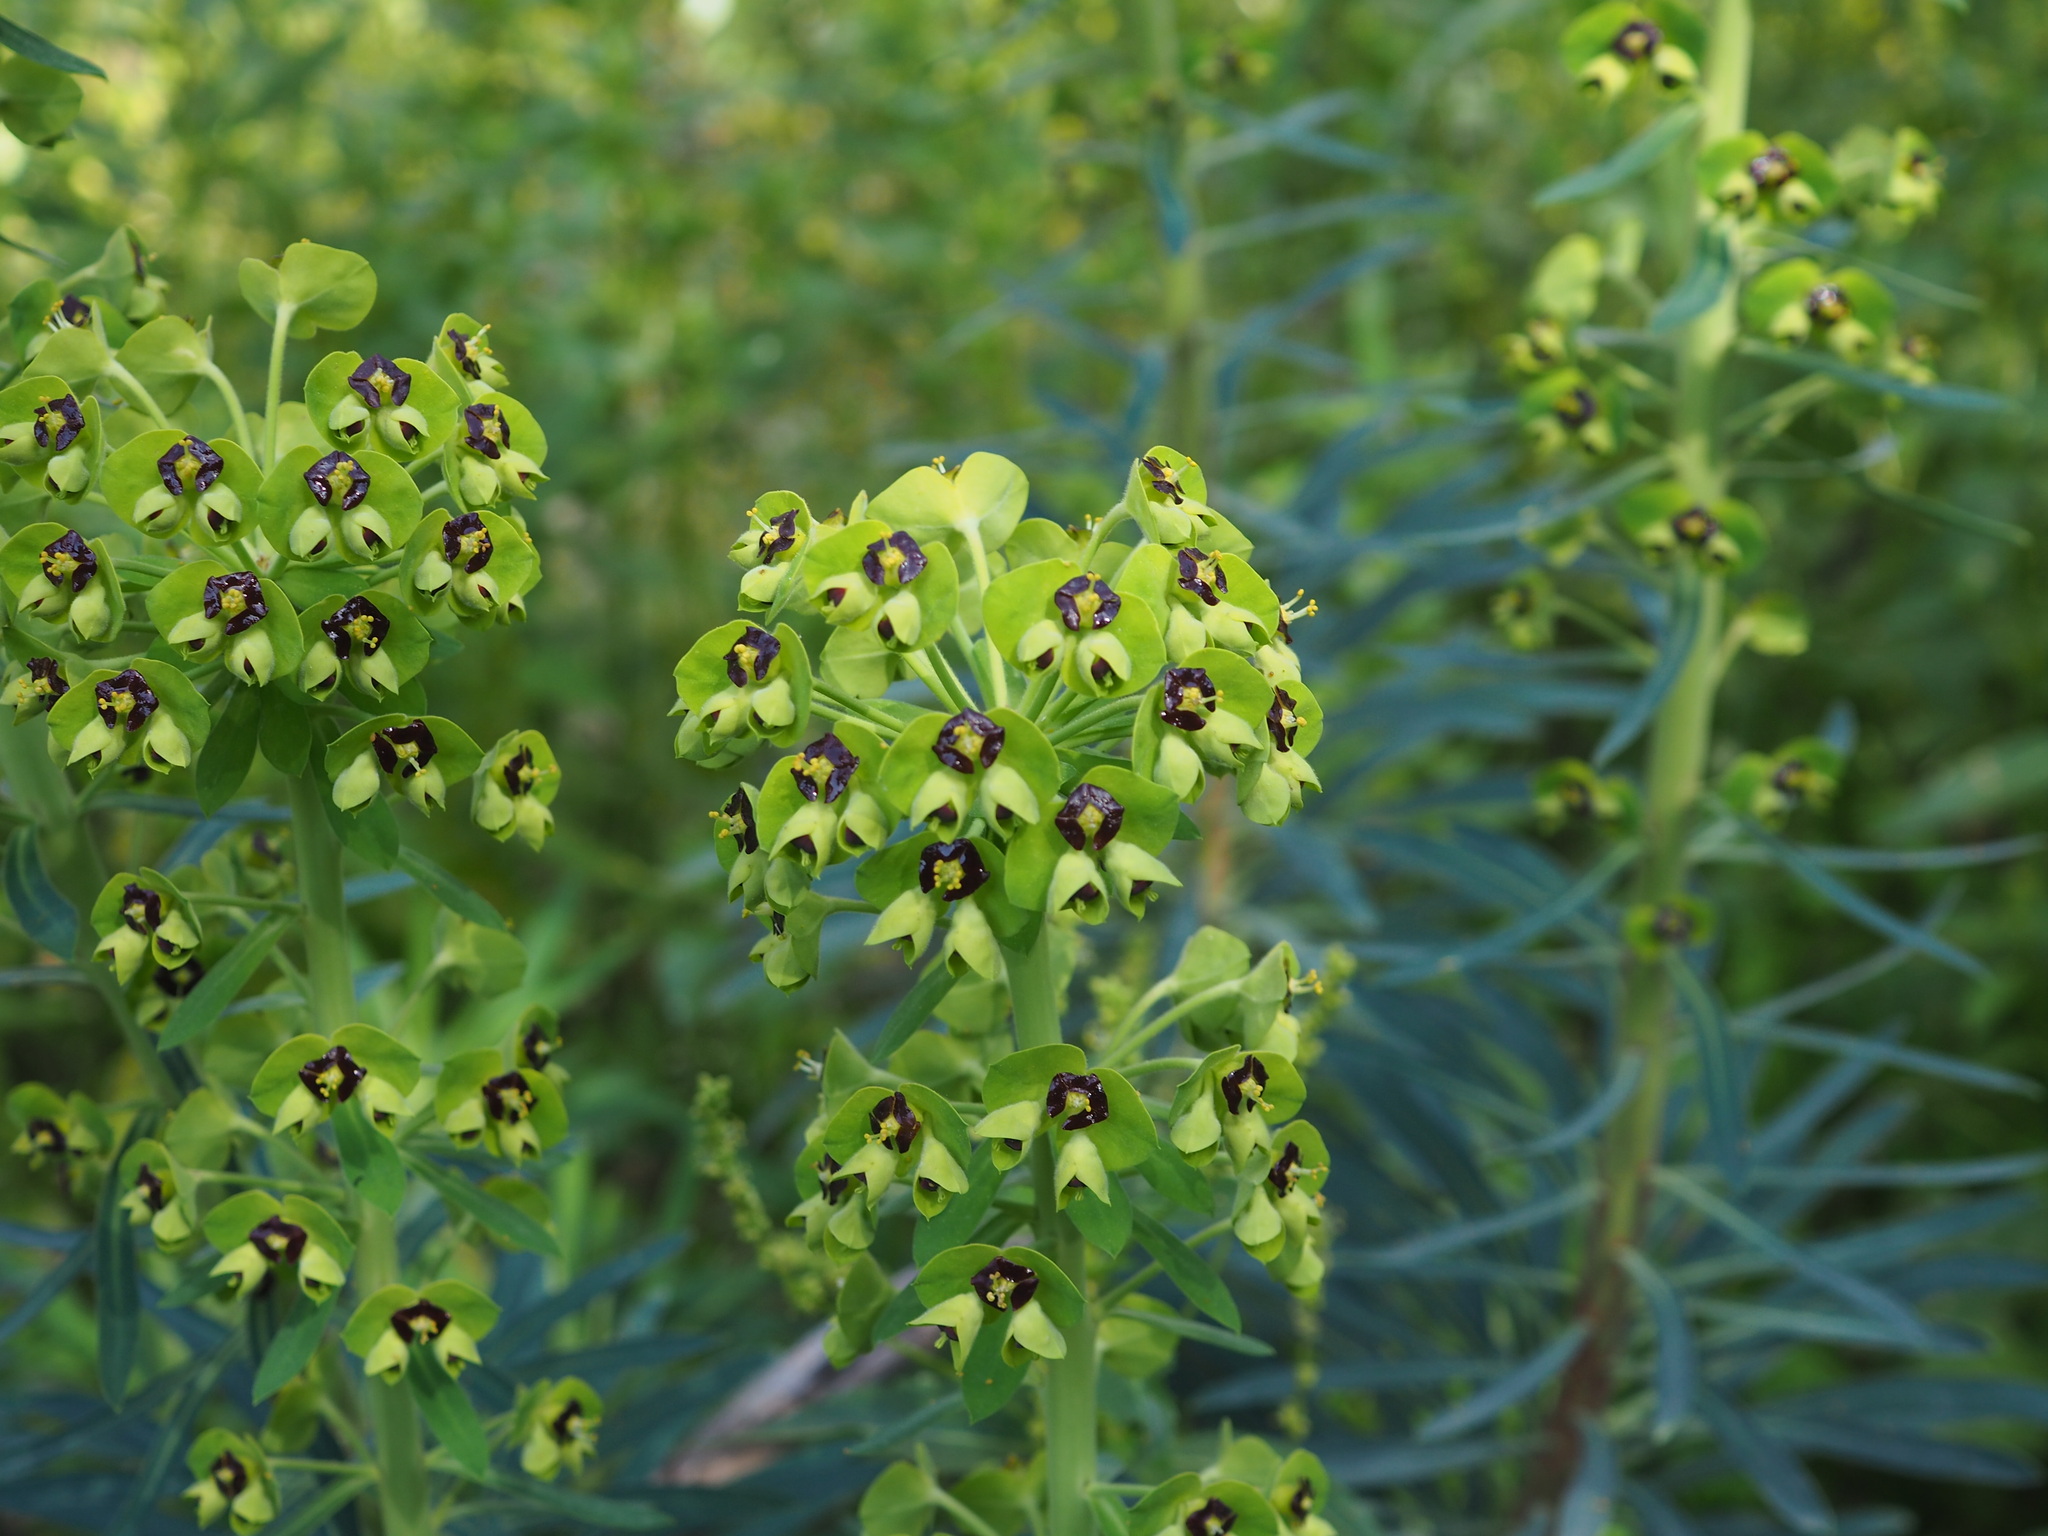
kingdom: Plantae
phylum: Tracheophyta
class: Magnoliopsida
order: Malpighiales
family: Euphorbiaceae
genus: Euphorbia
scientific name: Euphorbia characias
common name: Mediterranean spurge
